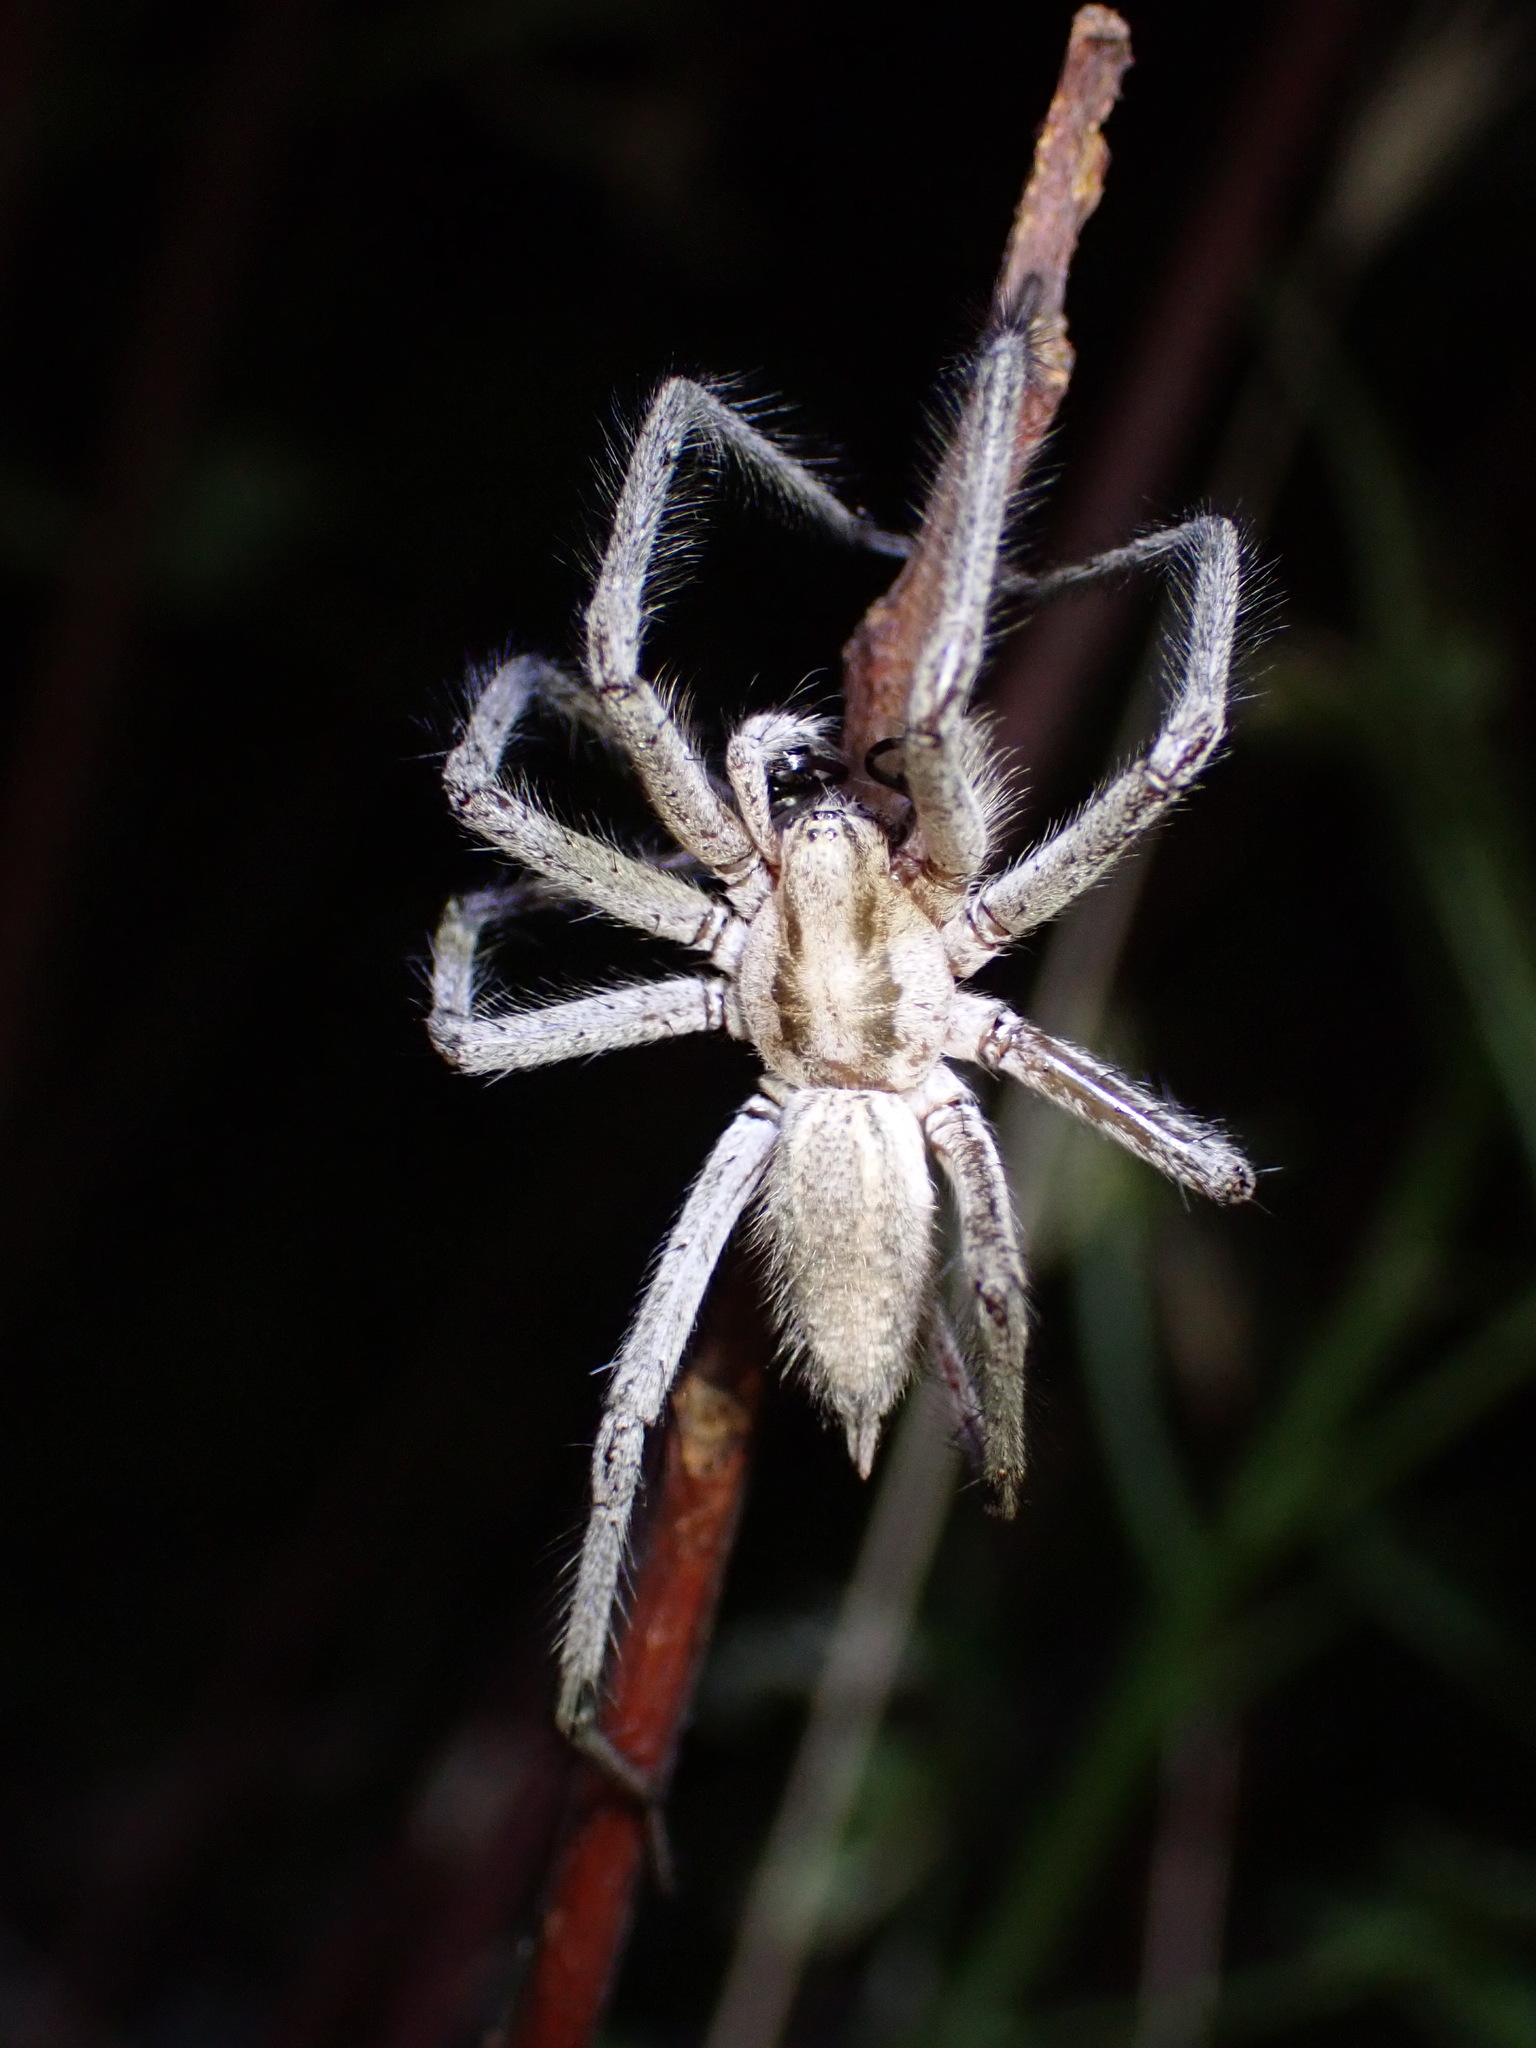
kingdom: Animalia
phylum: Arthropoda
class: Arachnida
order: Araneae
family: Agelenidae
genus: Agelenopsis
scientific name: Agelenopsis aperta
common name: Desert grass spider
